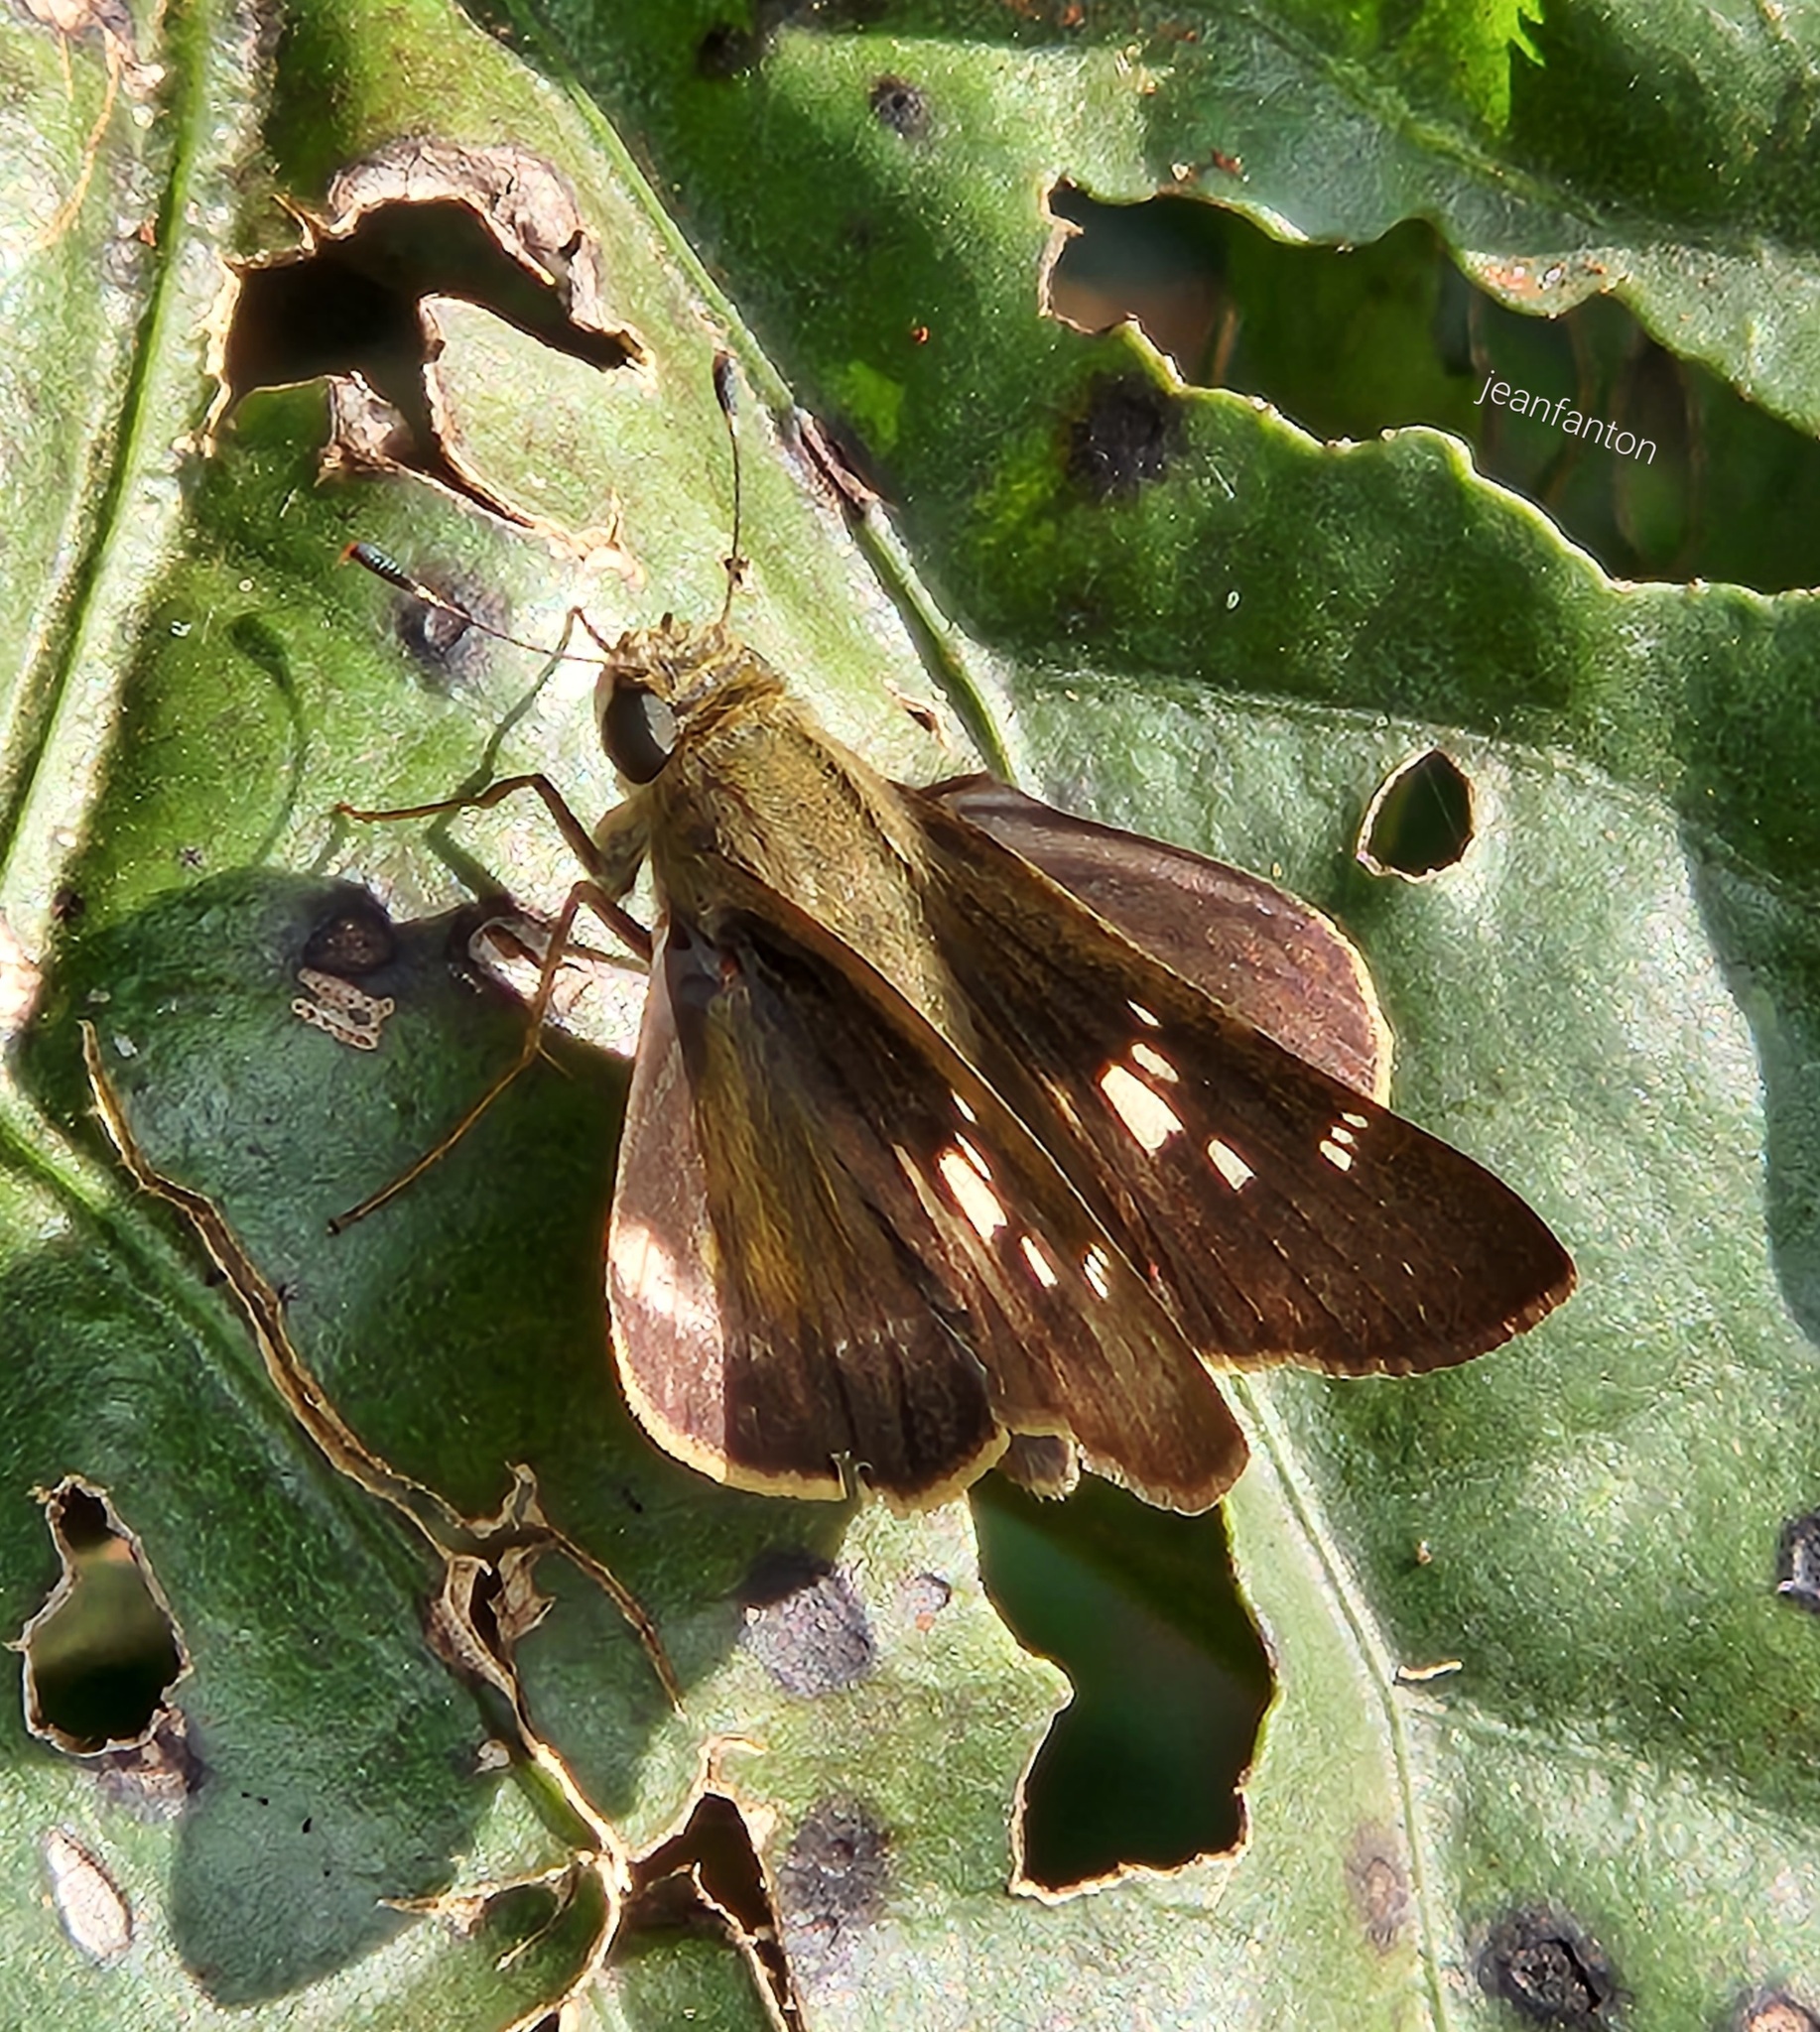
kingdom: Animalia
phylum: Arthropoda
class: Insecta
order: Lepidoptera
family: Hesperiidae
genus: Nyctelius
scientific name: Nyctelius nyctelius
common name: Violet-banded skipper
